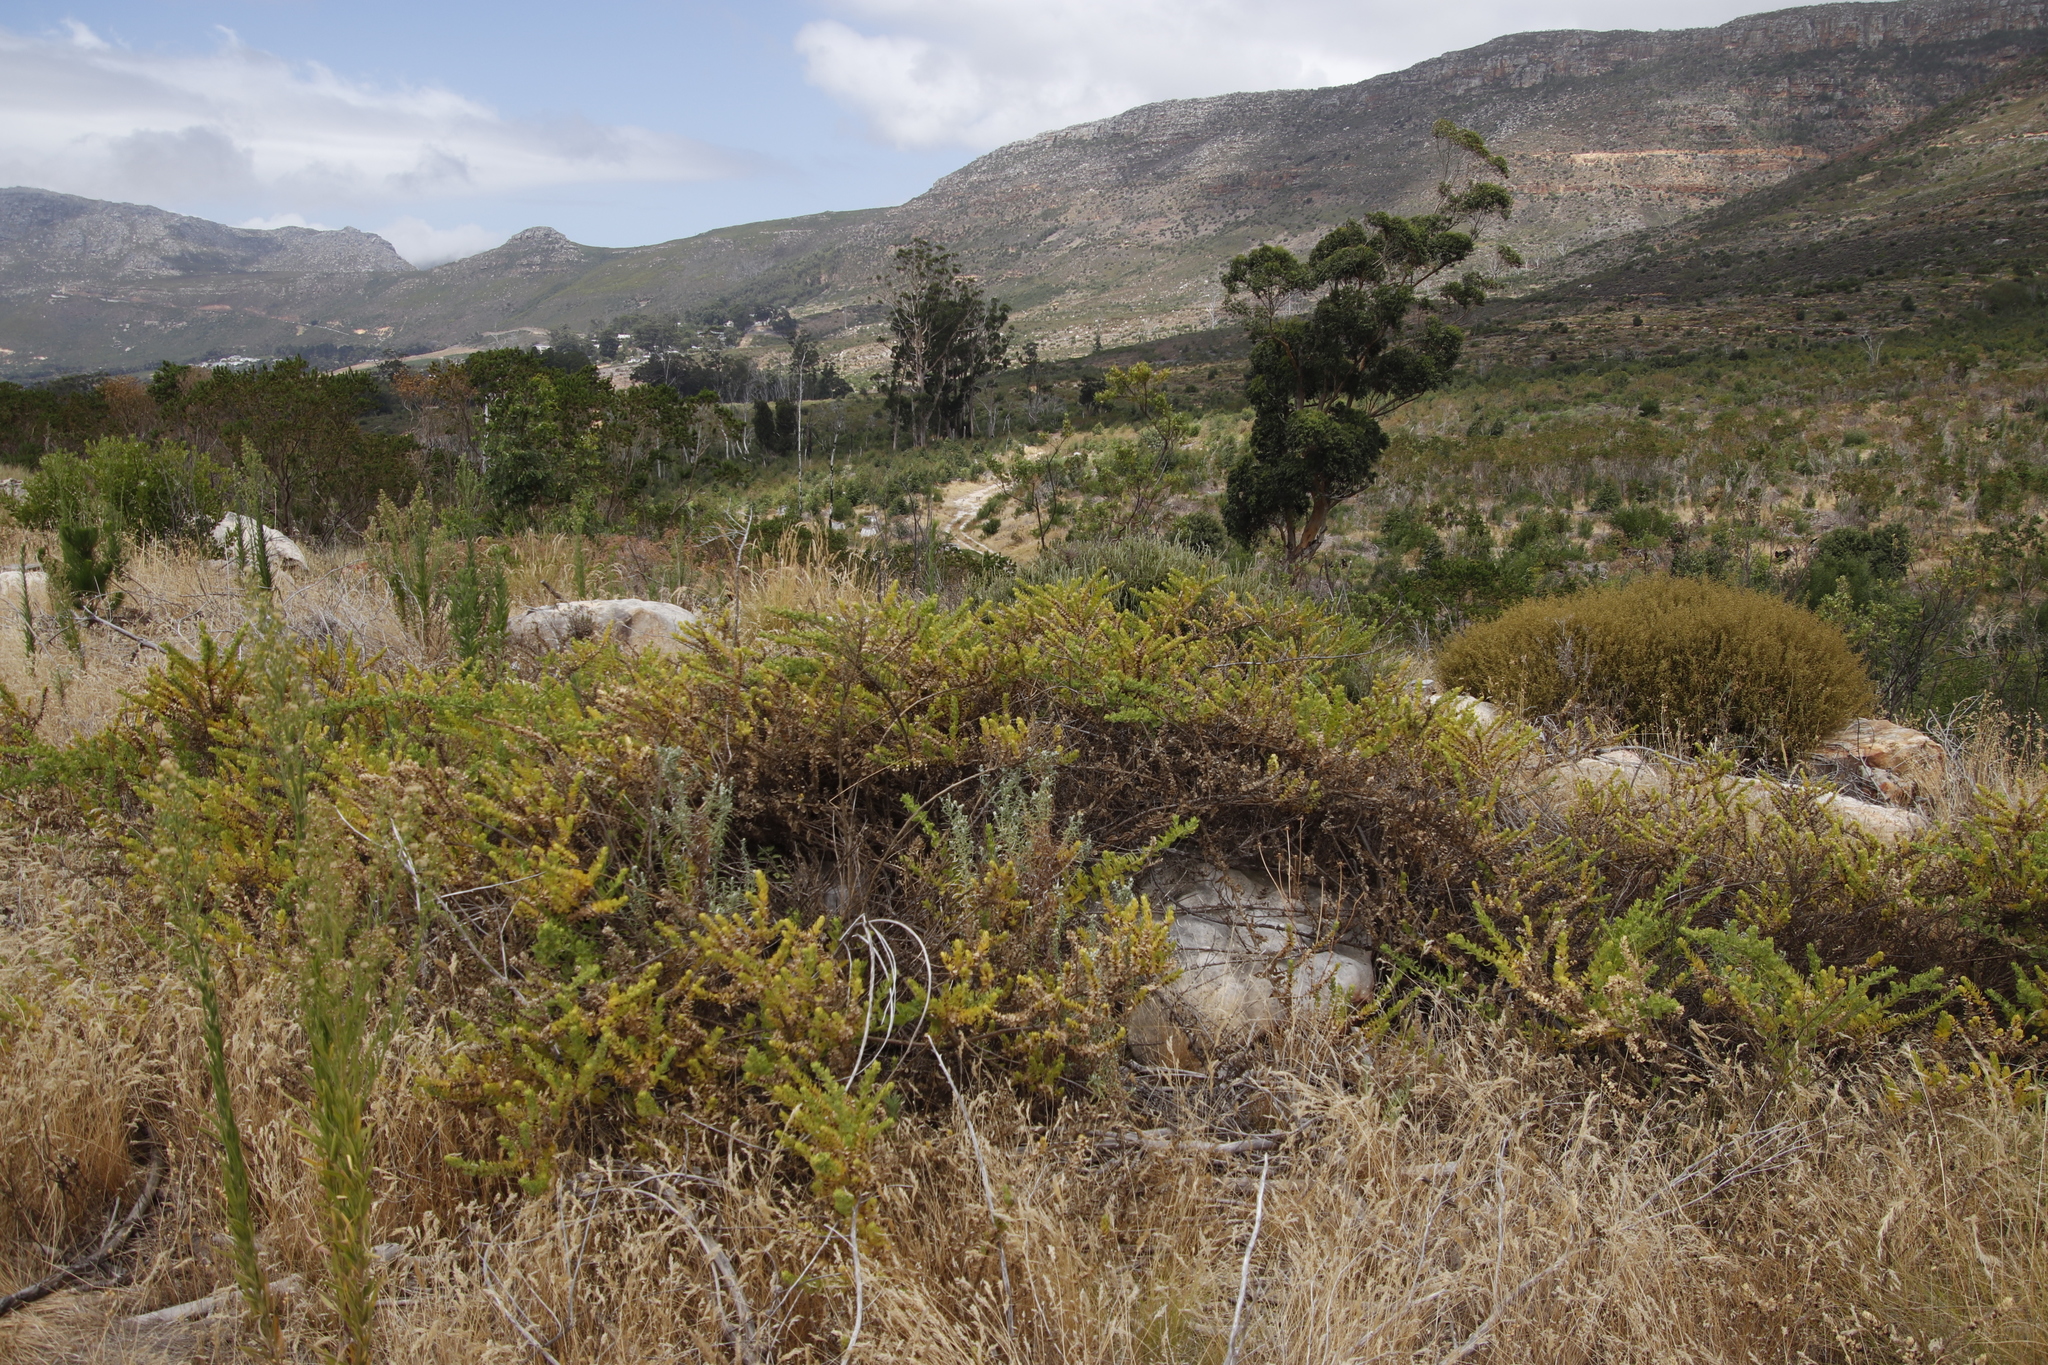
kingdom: Plantae
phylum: Tracheophyta
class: Magnoliopsida
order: Lamiales
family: Scrophulariaceae
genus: Oftia
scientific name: Oftia africana
